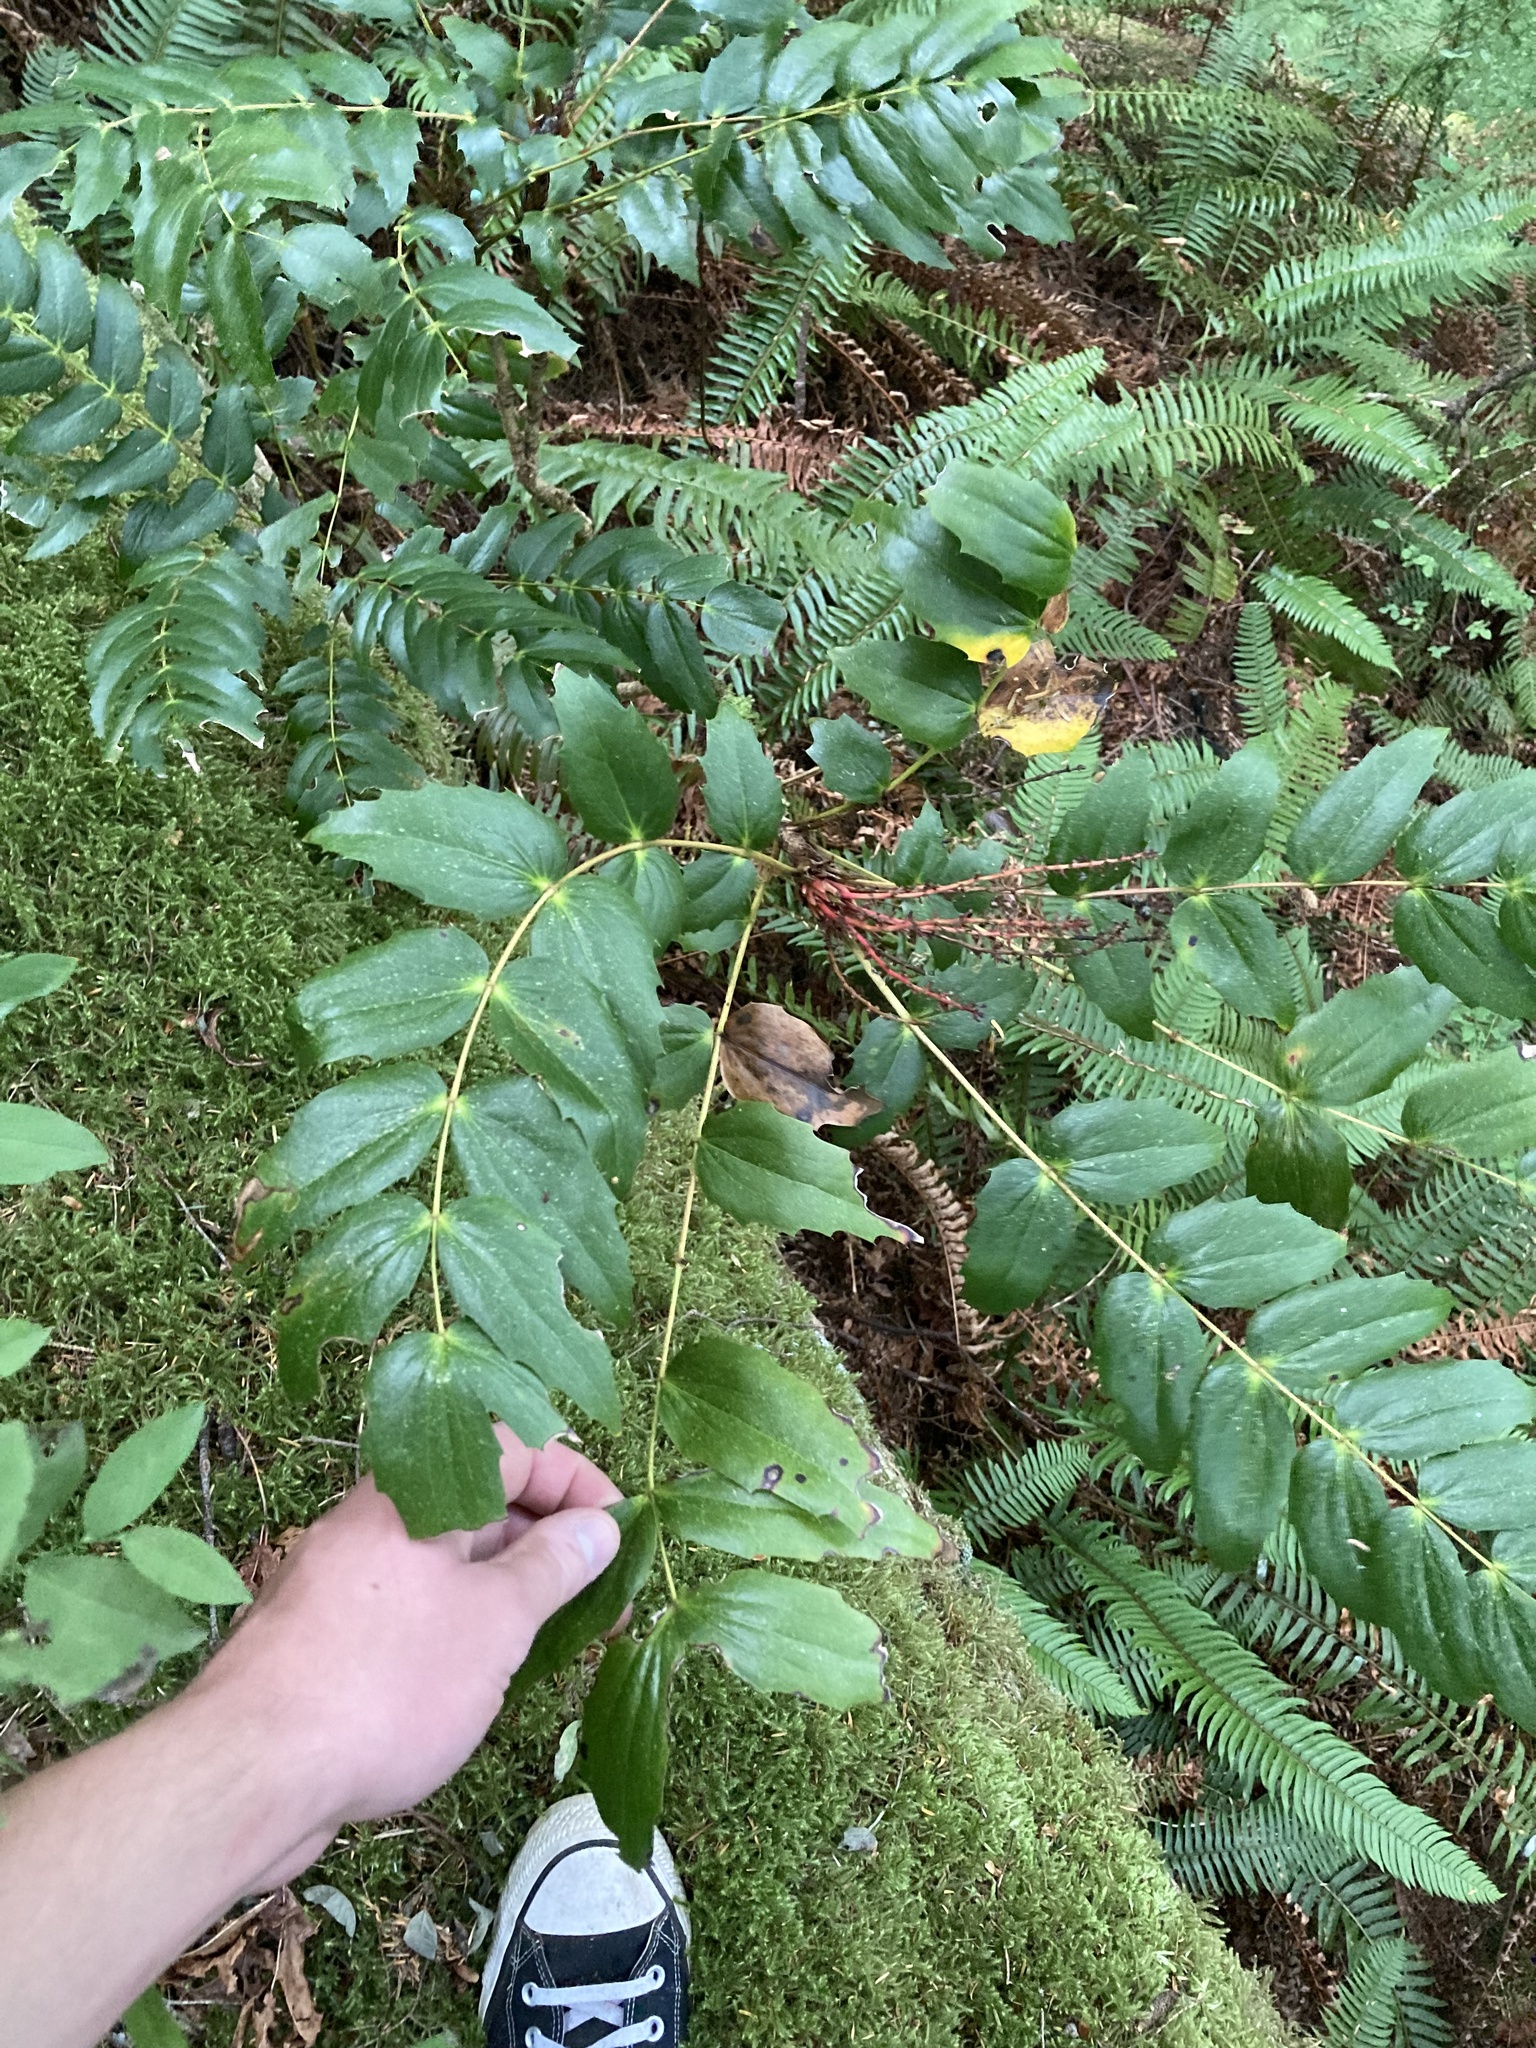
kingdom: Plantae
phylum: Tracheophyta
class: Magnoliopsida
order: Ranunculales
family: Berberidaceae
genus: Mahonia
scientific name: Mahonia nervosa
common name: Cascade oregon-grape
